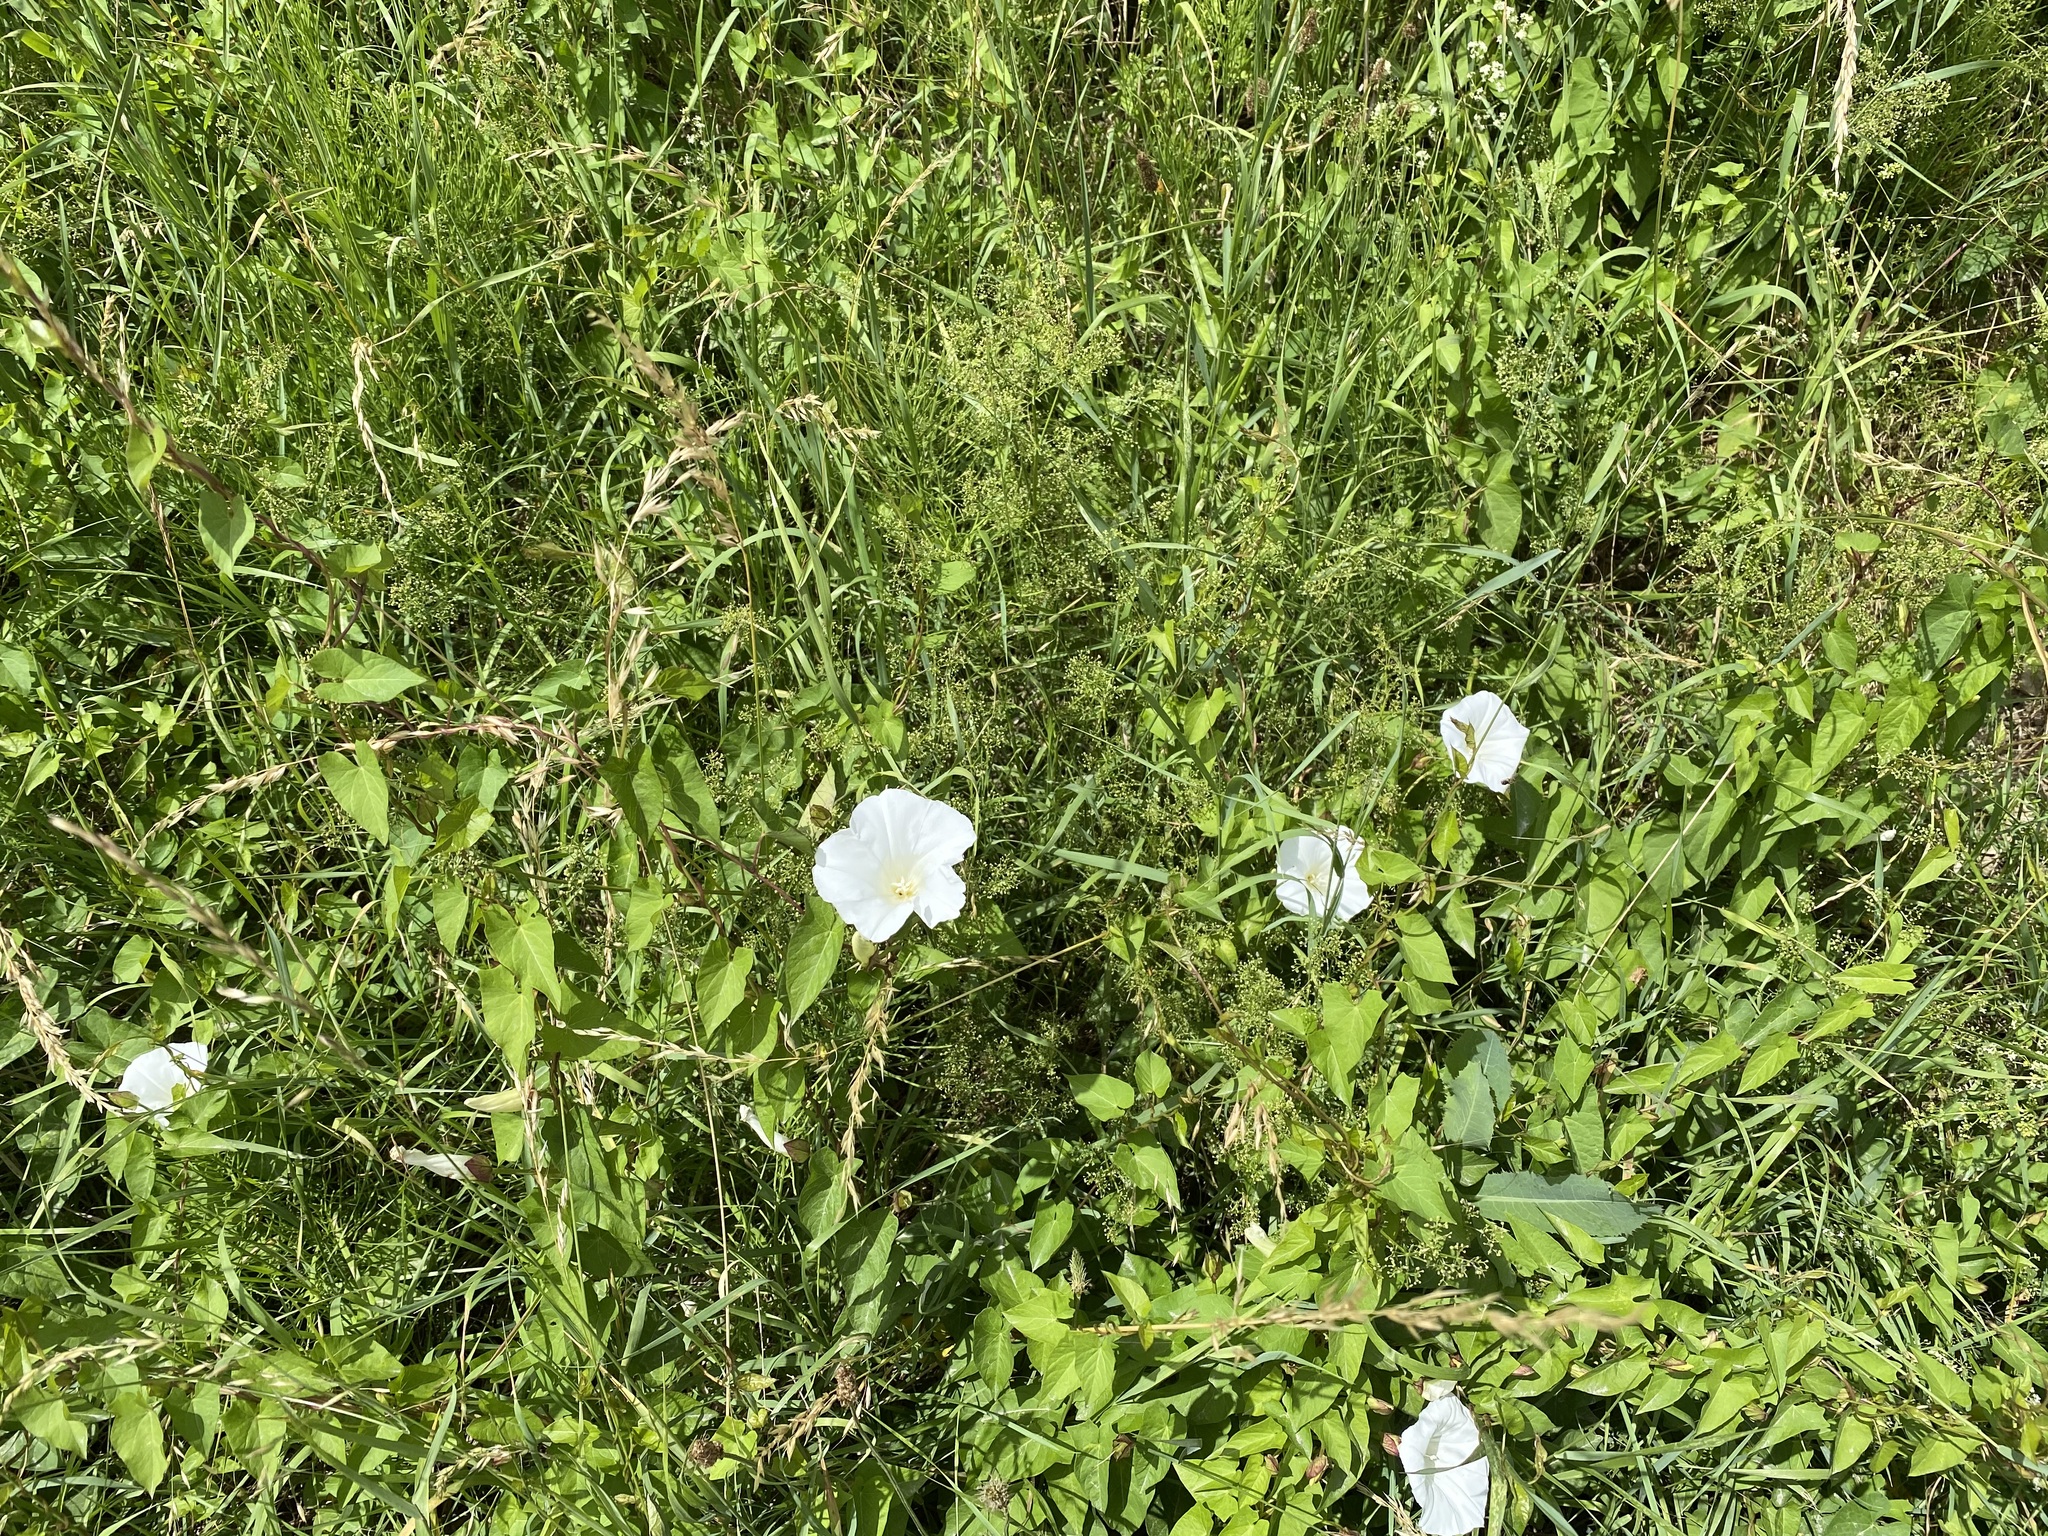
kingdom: Plantae
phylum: Tracheophyta
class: Magnoliopsida
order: Solanales
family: Convolvulaceae
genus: Calystegia
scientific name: Calystegia sepium
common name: Hedge bindweed
